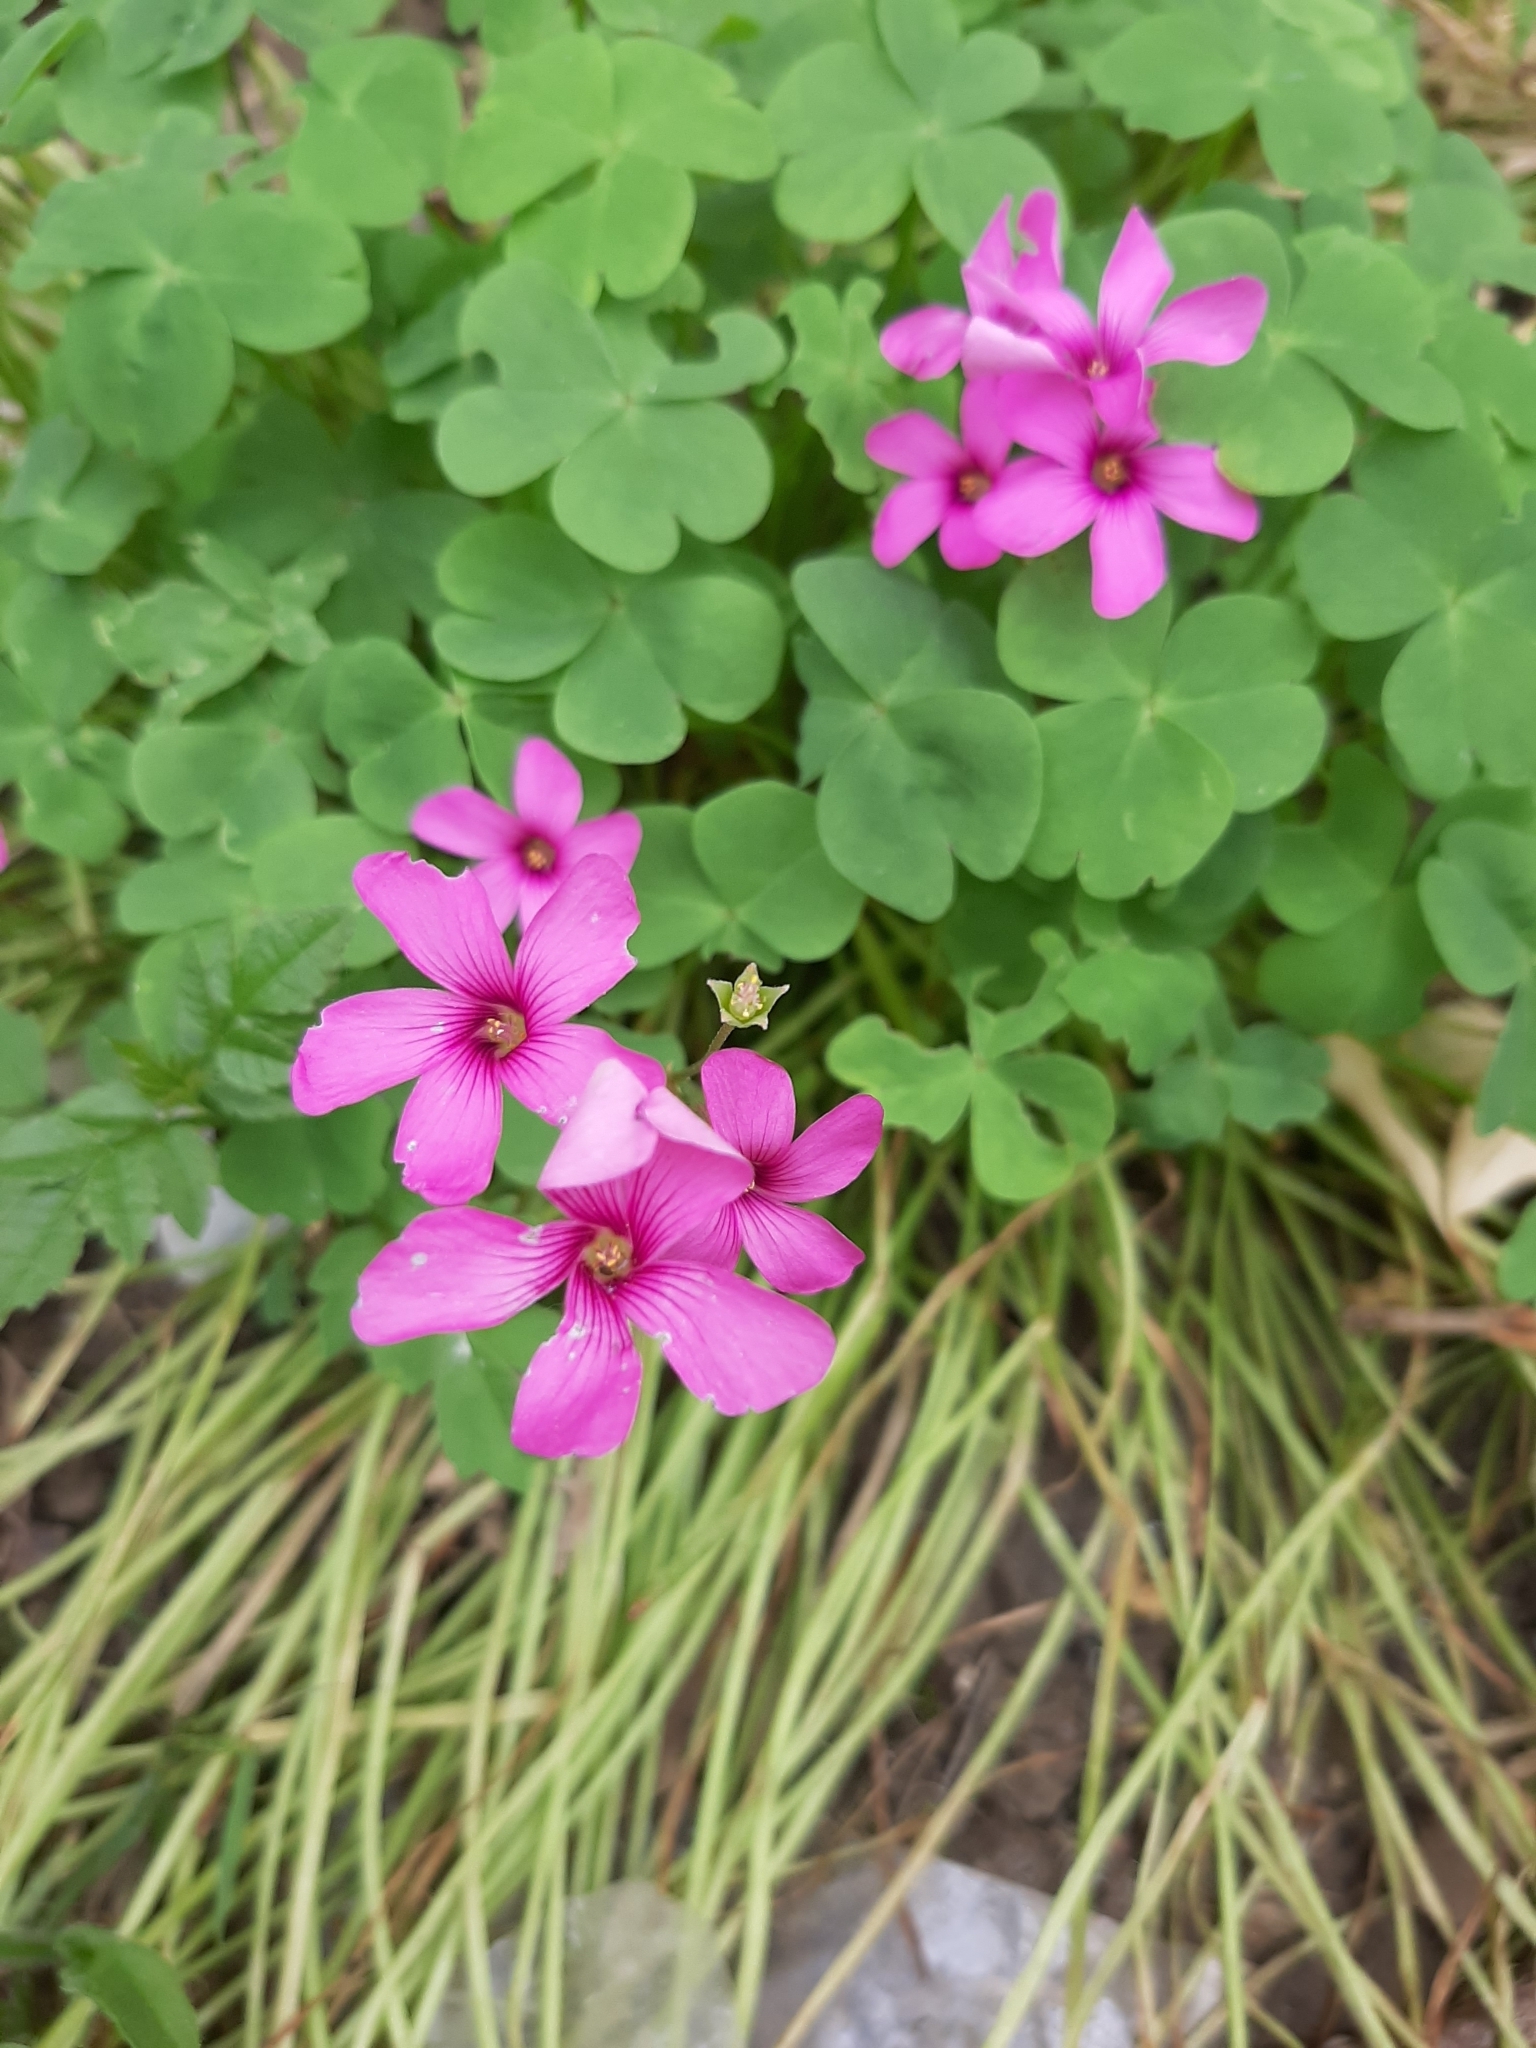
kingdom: Plantae
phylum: Tracheophyta
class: Magnoliopsida
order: Oxalidales
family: Oxalidaceae
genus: Oxalis
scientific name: Oxalis articulata
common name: Pink-sorrel
